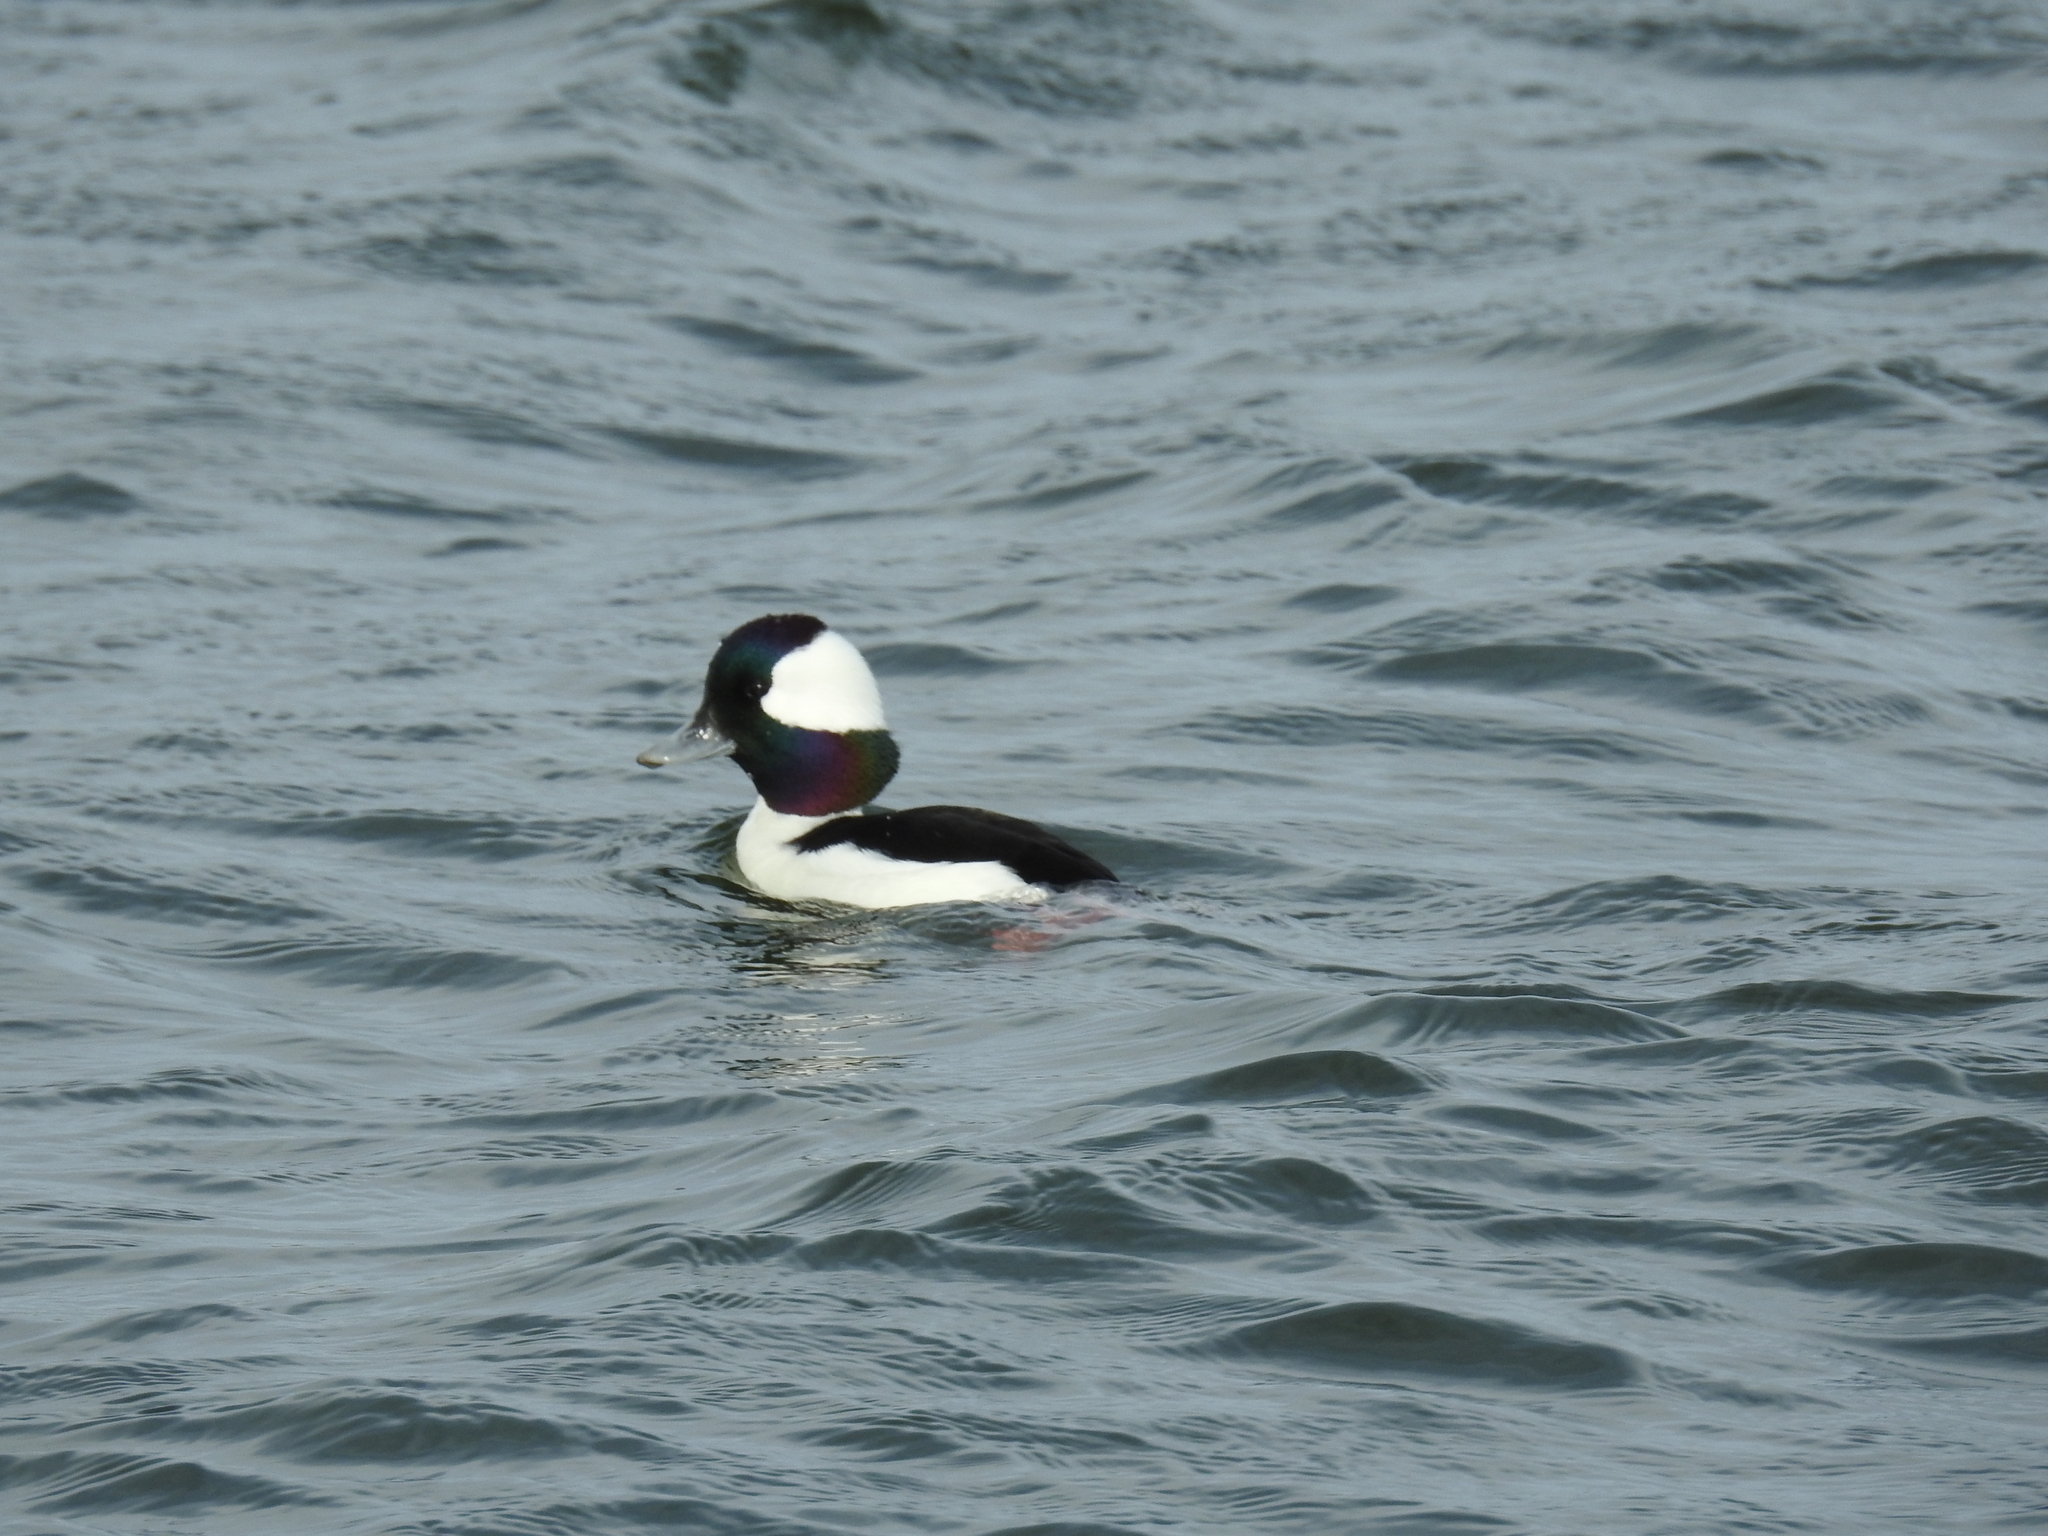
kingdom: Animalia
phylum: Chordata
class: Aves
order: Anseriformes
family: Anatidae
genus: Bucephala
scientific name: Bucephala albeola
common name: Bufflehead
